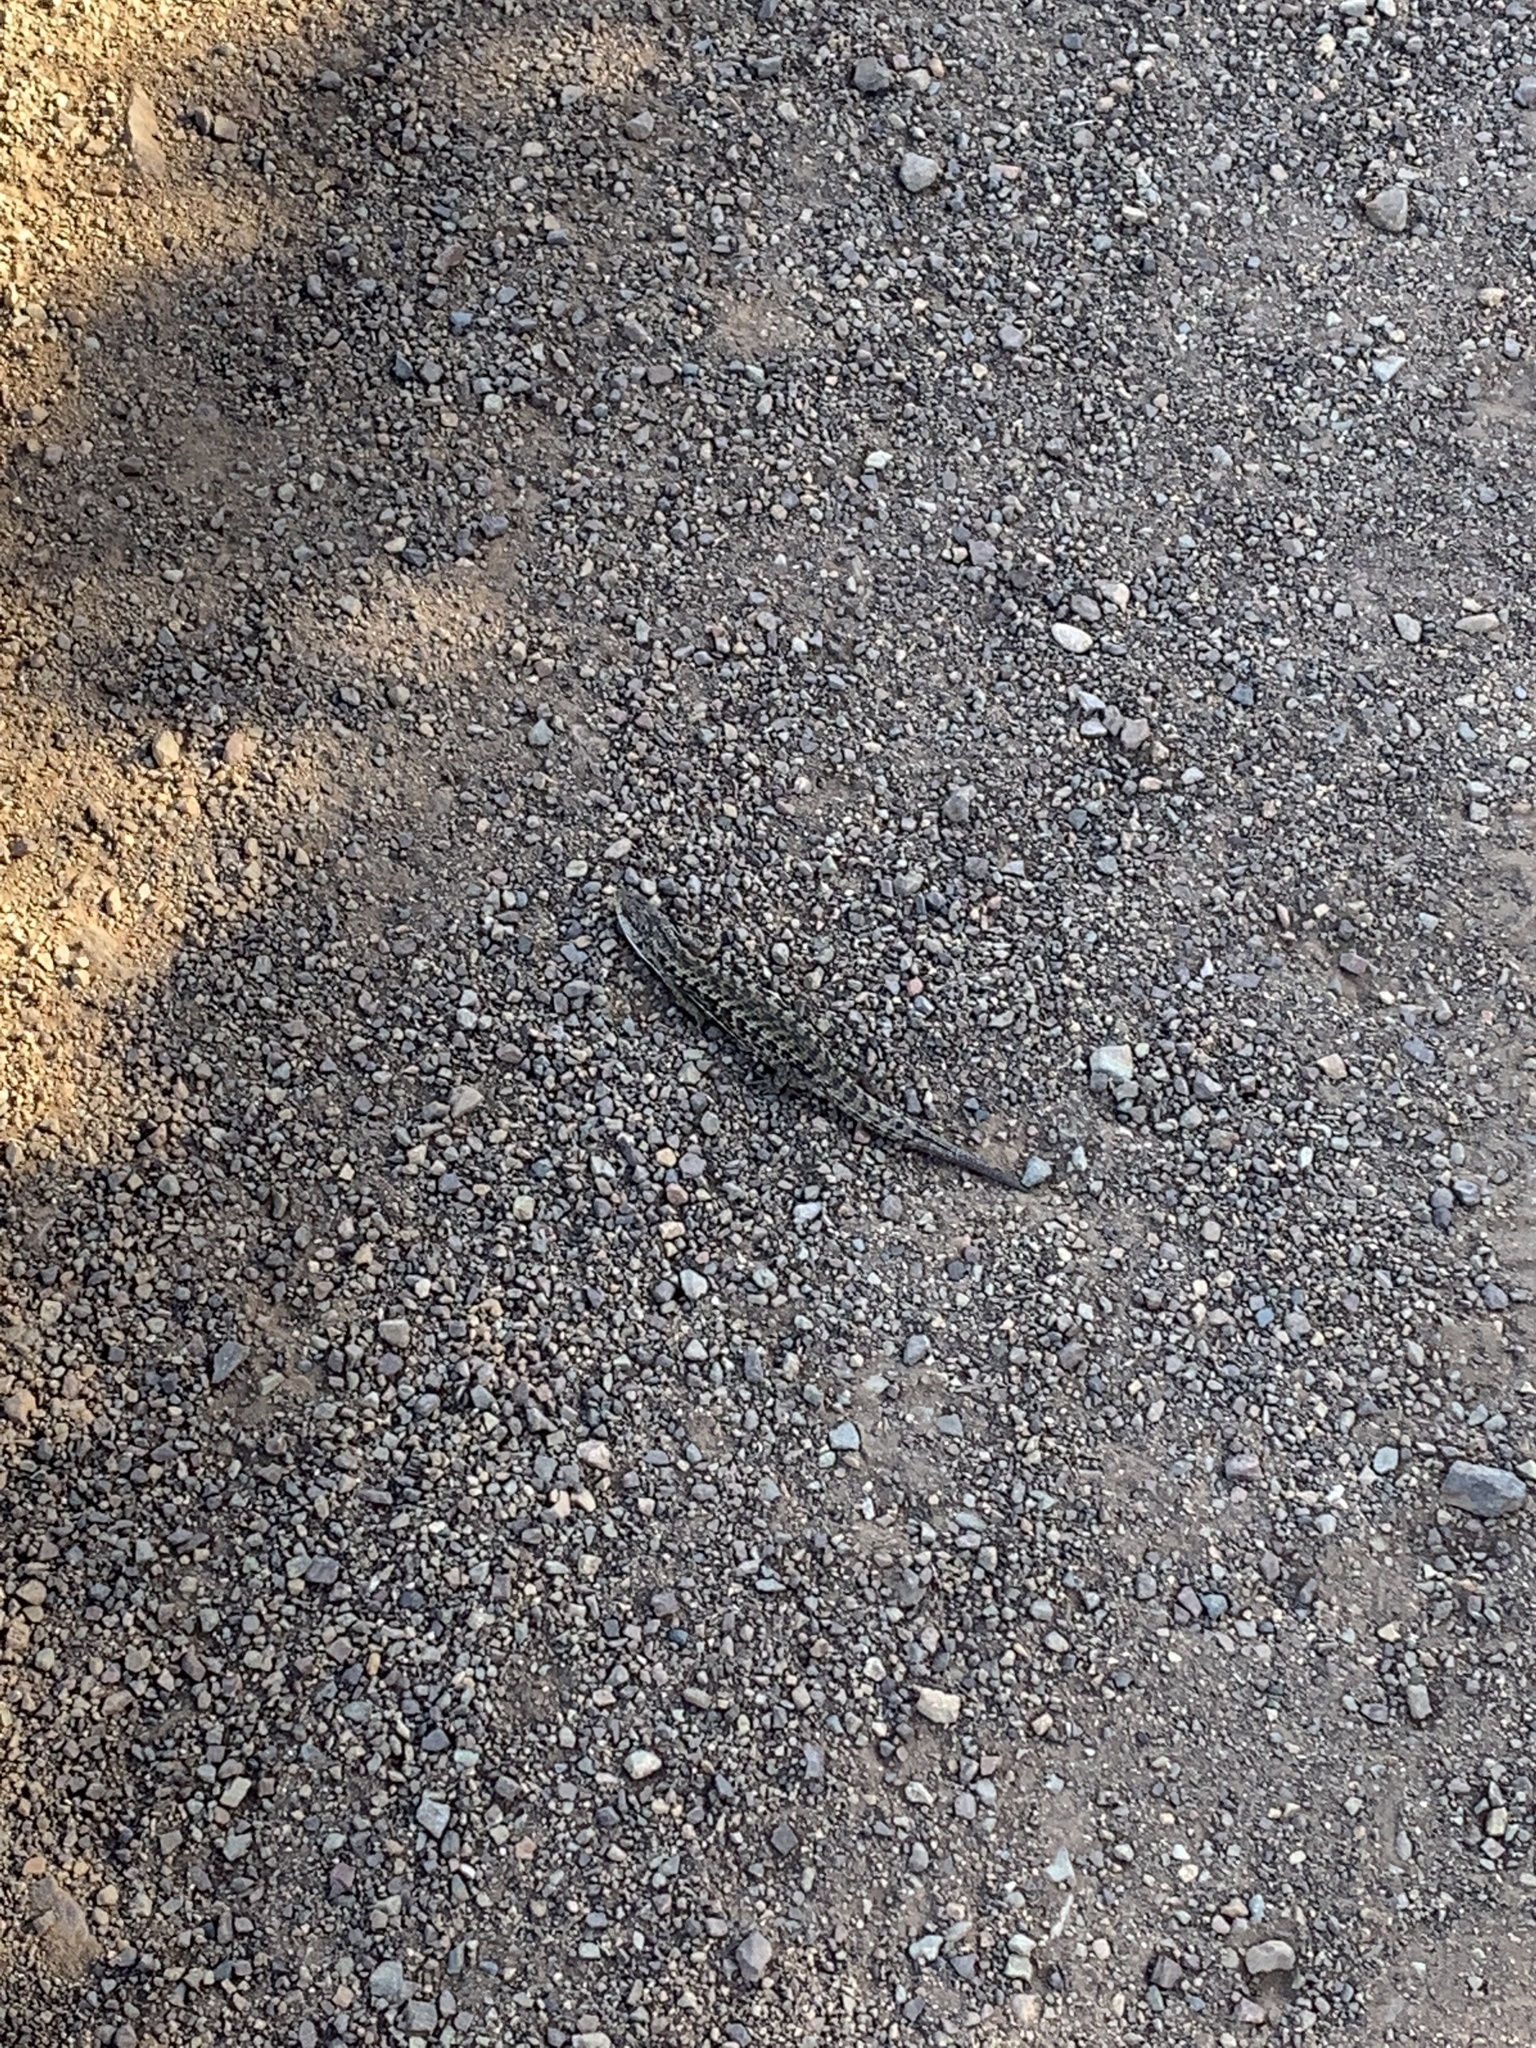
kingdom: Animalia
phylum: Chordata
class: Squamata
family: Anguidae
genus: Elgaria
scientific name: Elgaria coerulea
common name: Northern alligator lizard
